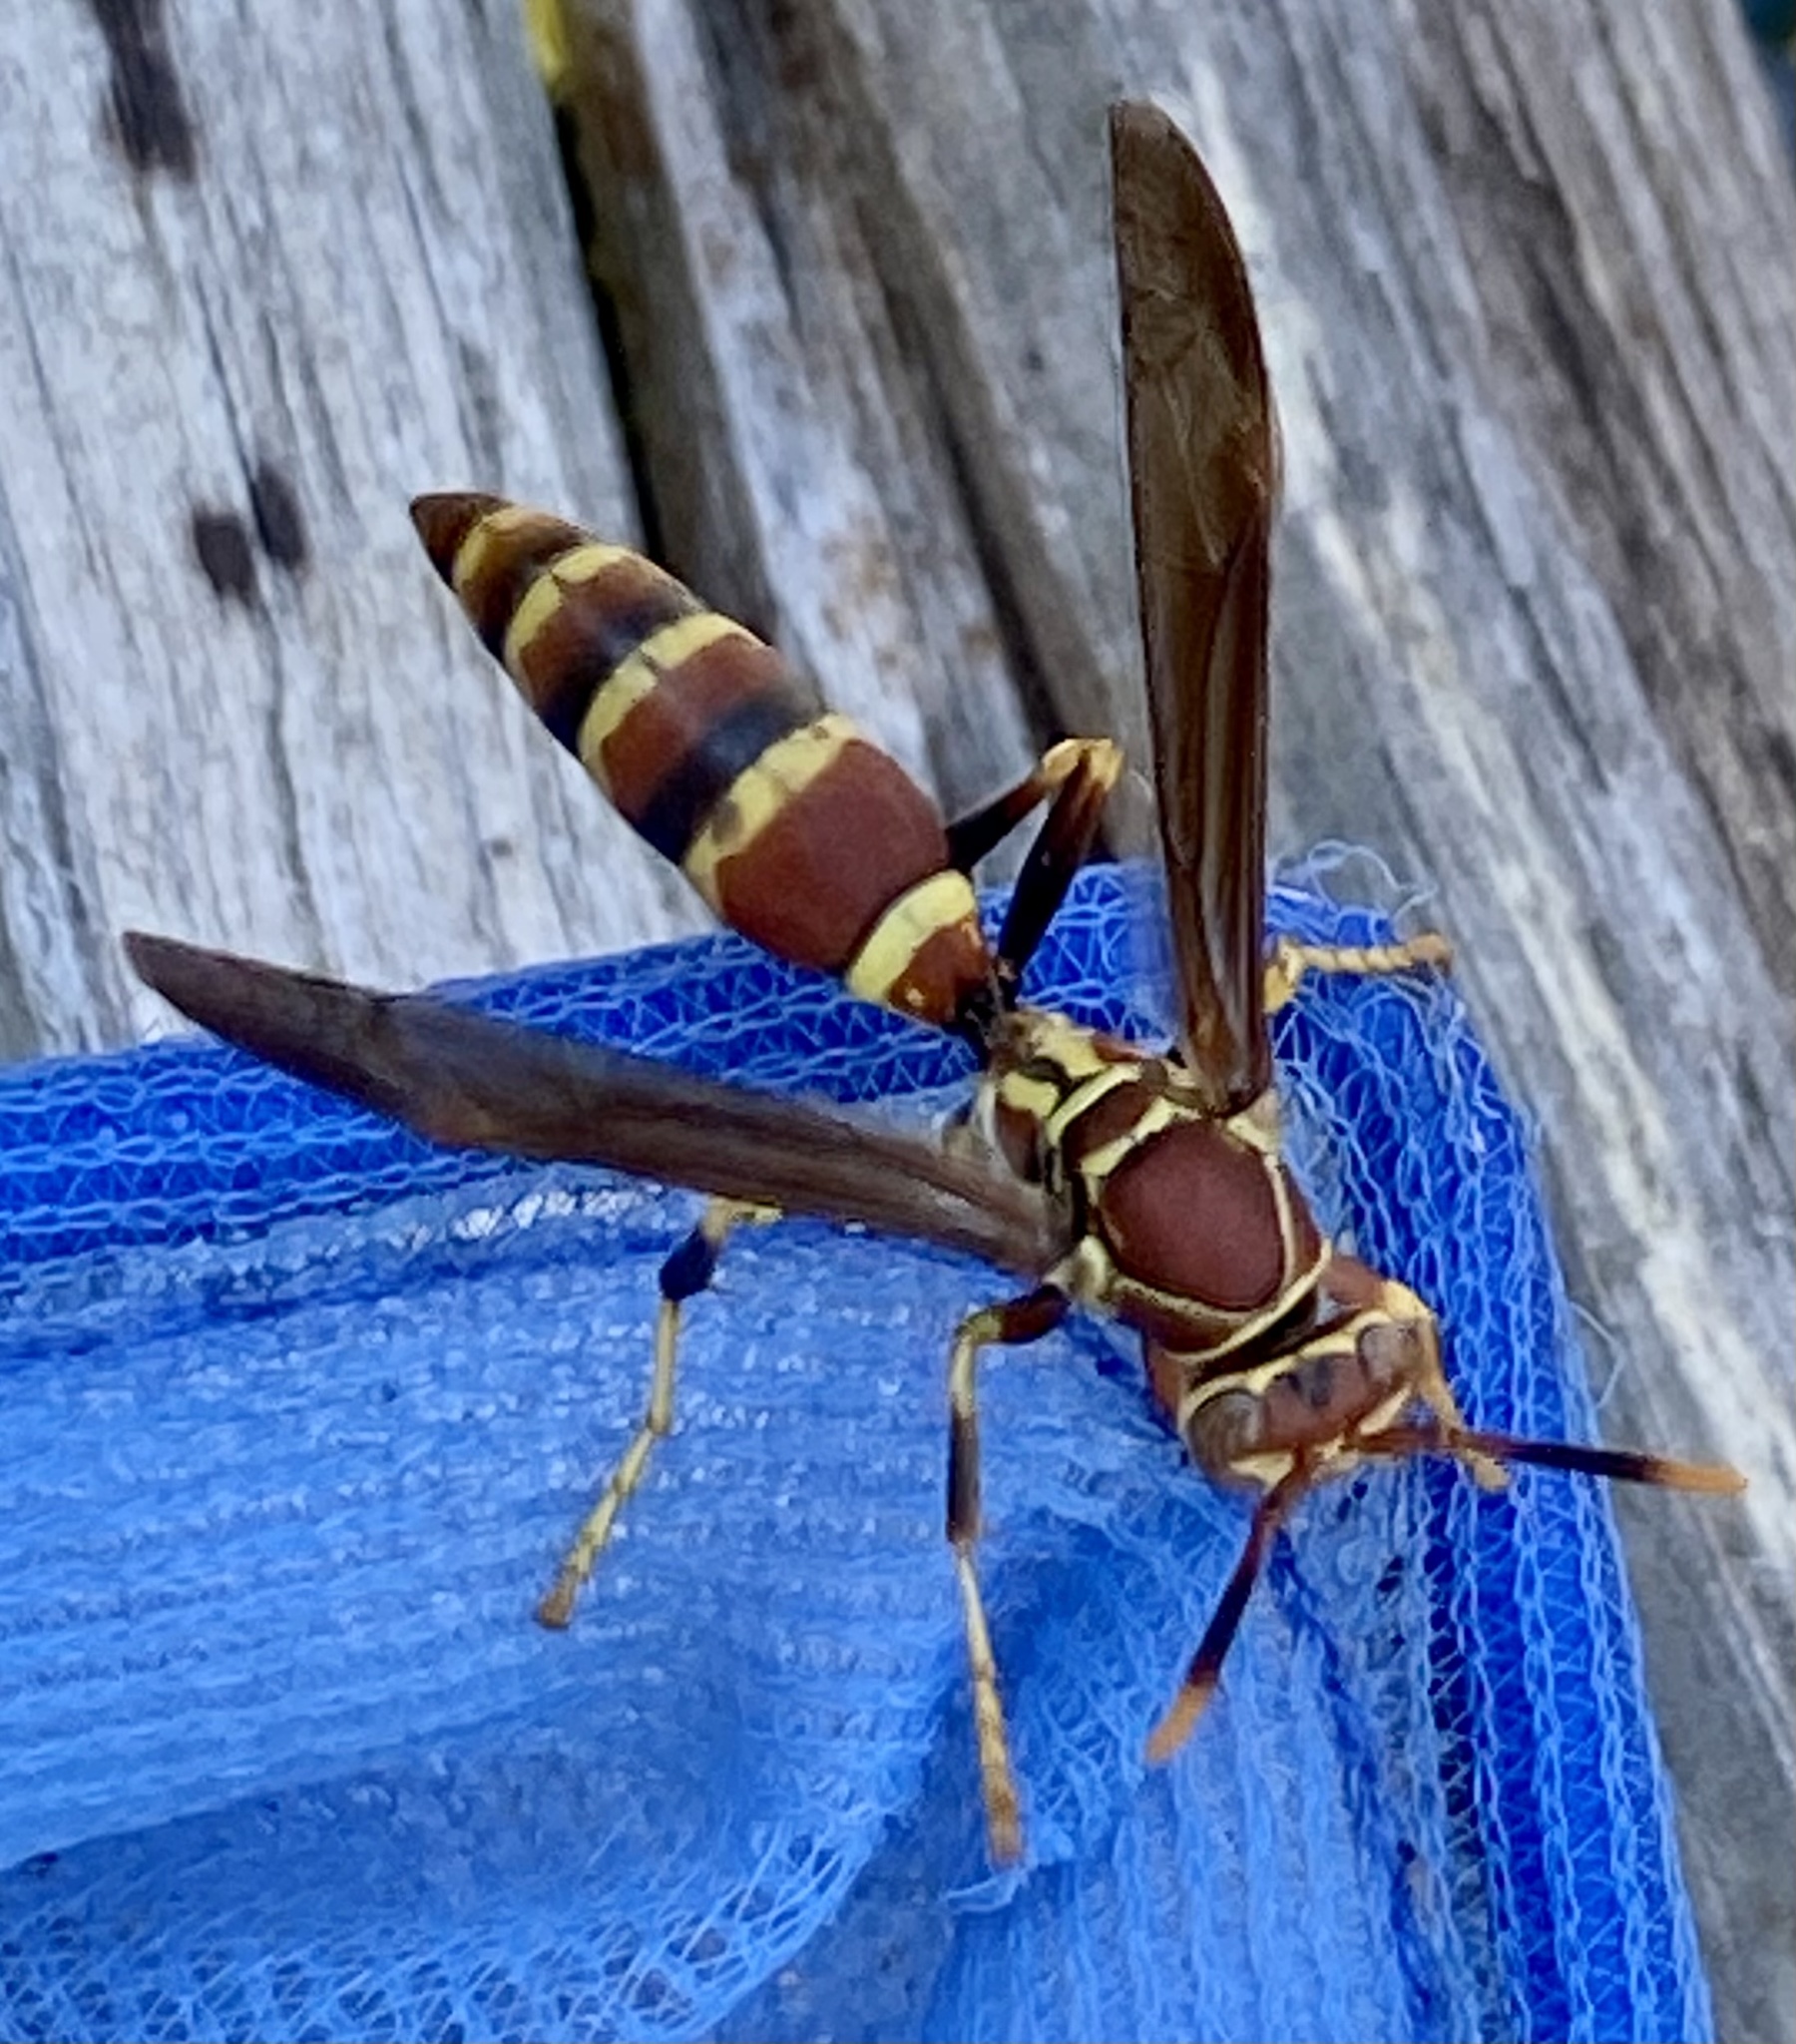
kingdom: Animalia
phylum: Arthropoda
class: Insecta
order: Hymenoptera
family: Eumenidae
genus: Polistes
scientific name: Polistes exclamans
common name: Paper wasp
